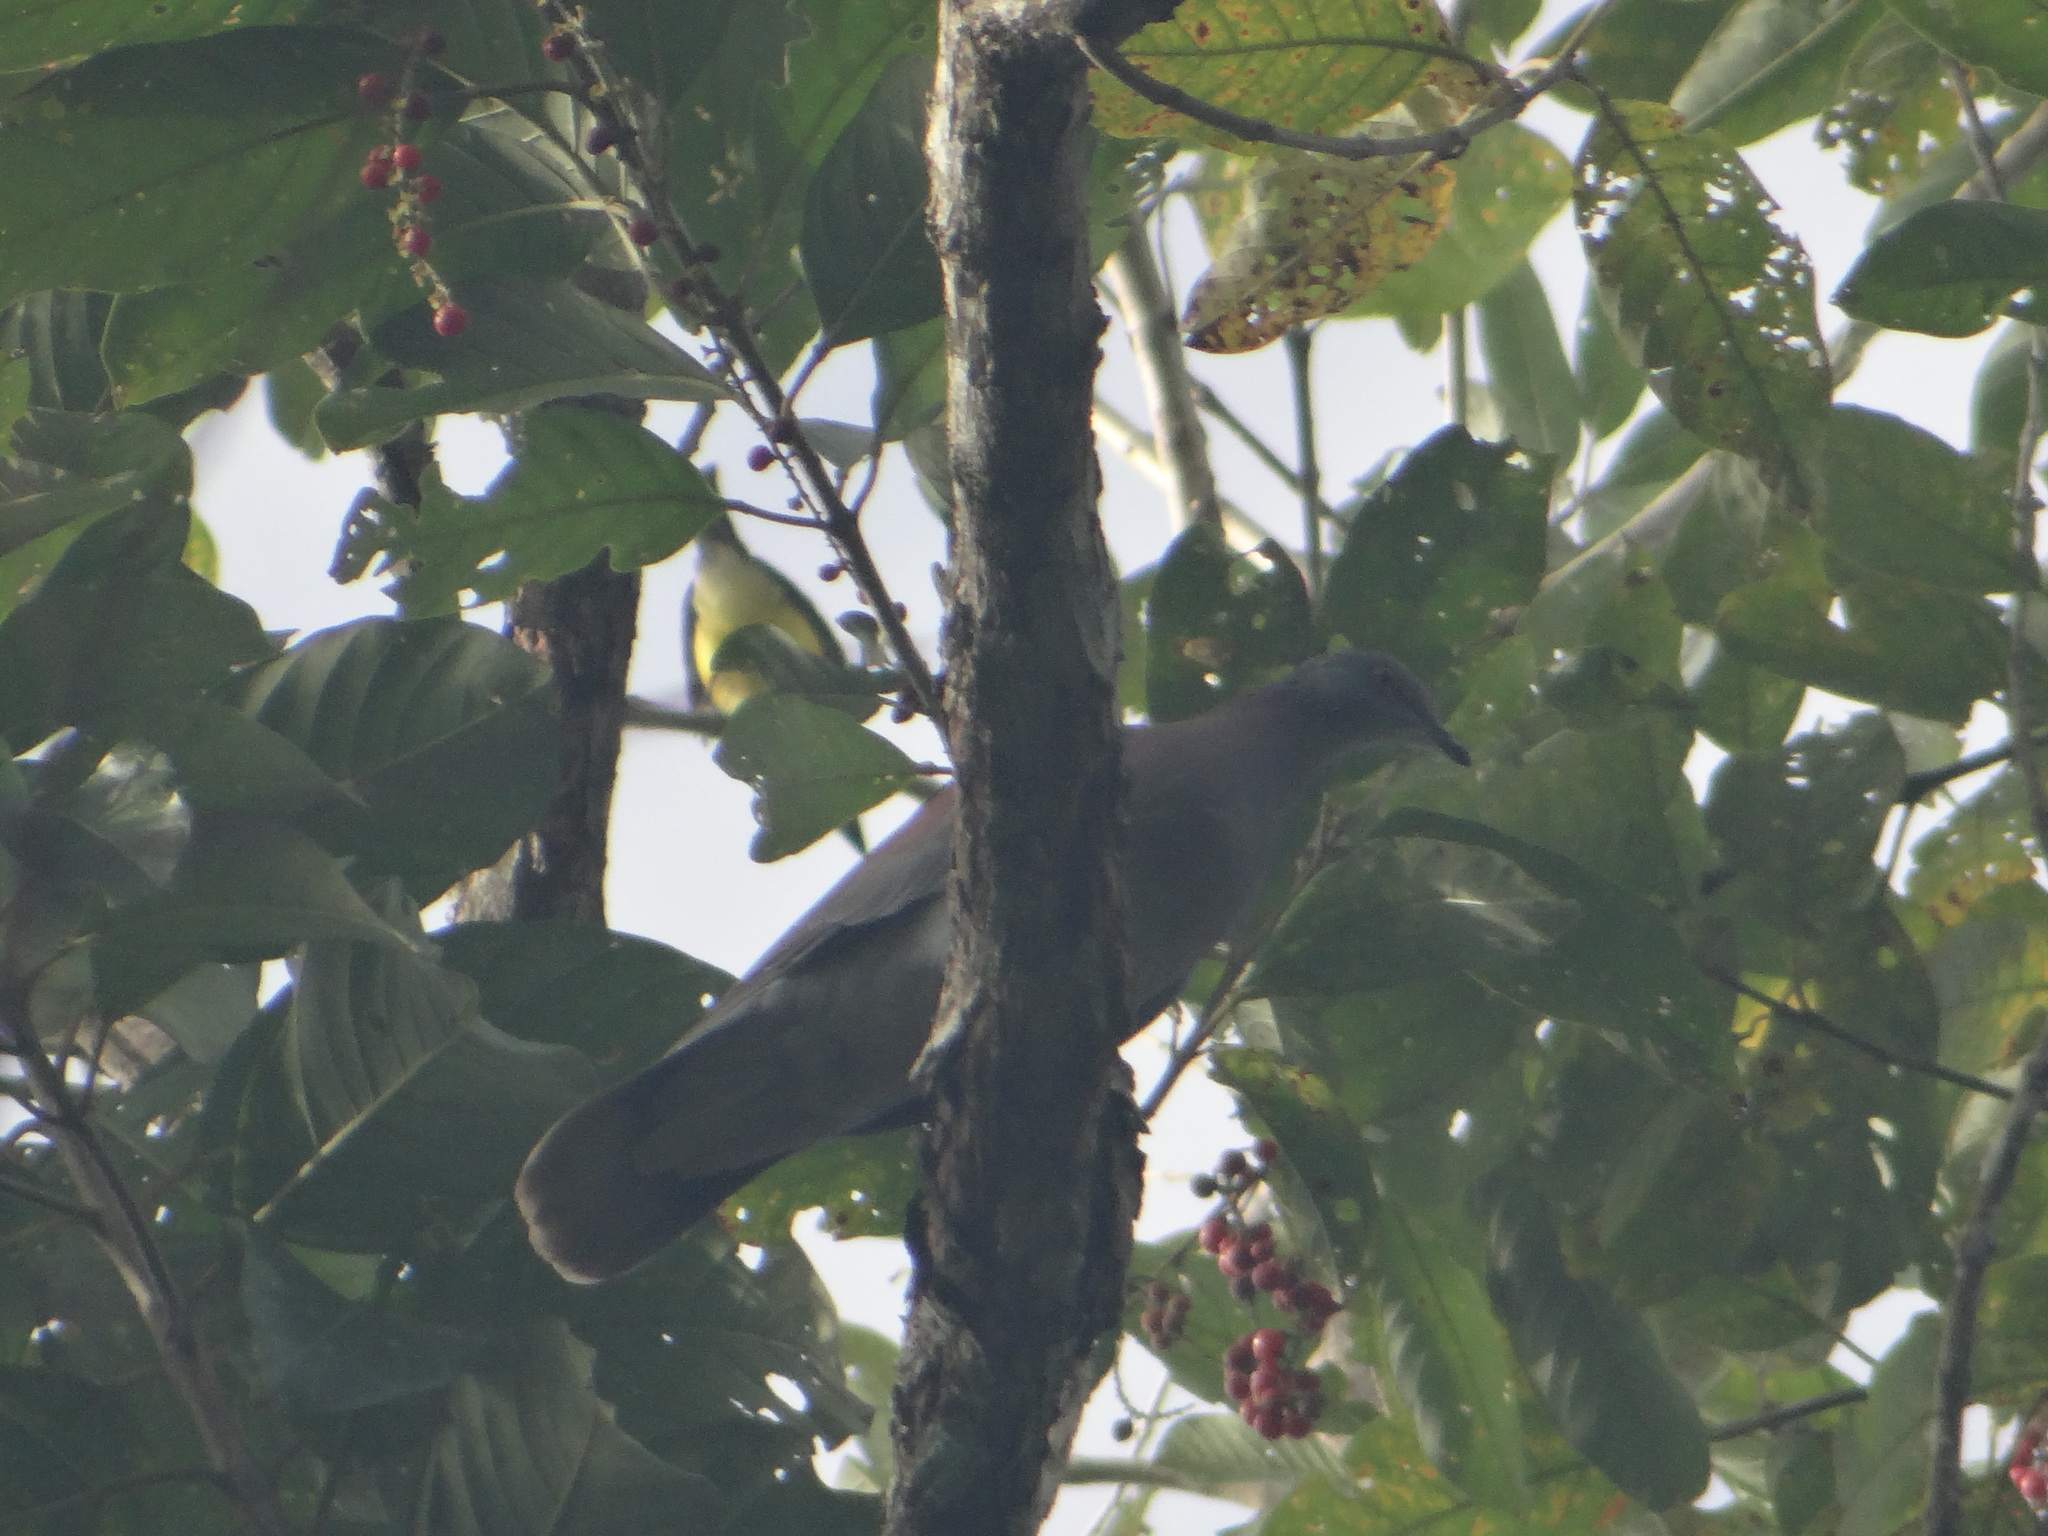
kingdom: Animalia
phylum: Chordata
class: Aves
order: Columbiformes
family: Columbidae
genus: Patagioenas
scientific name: Patagioenas cayennensis
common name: Pale-vented pigeon
